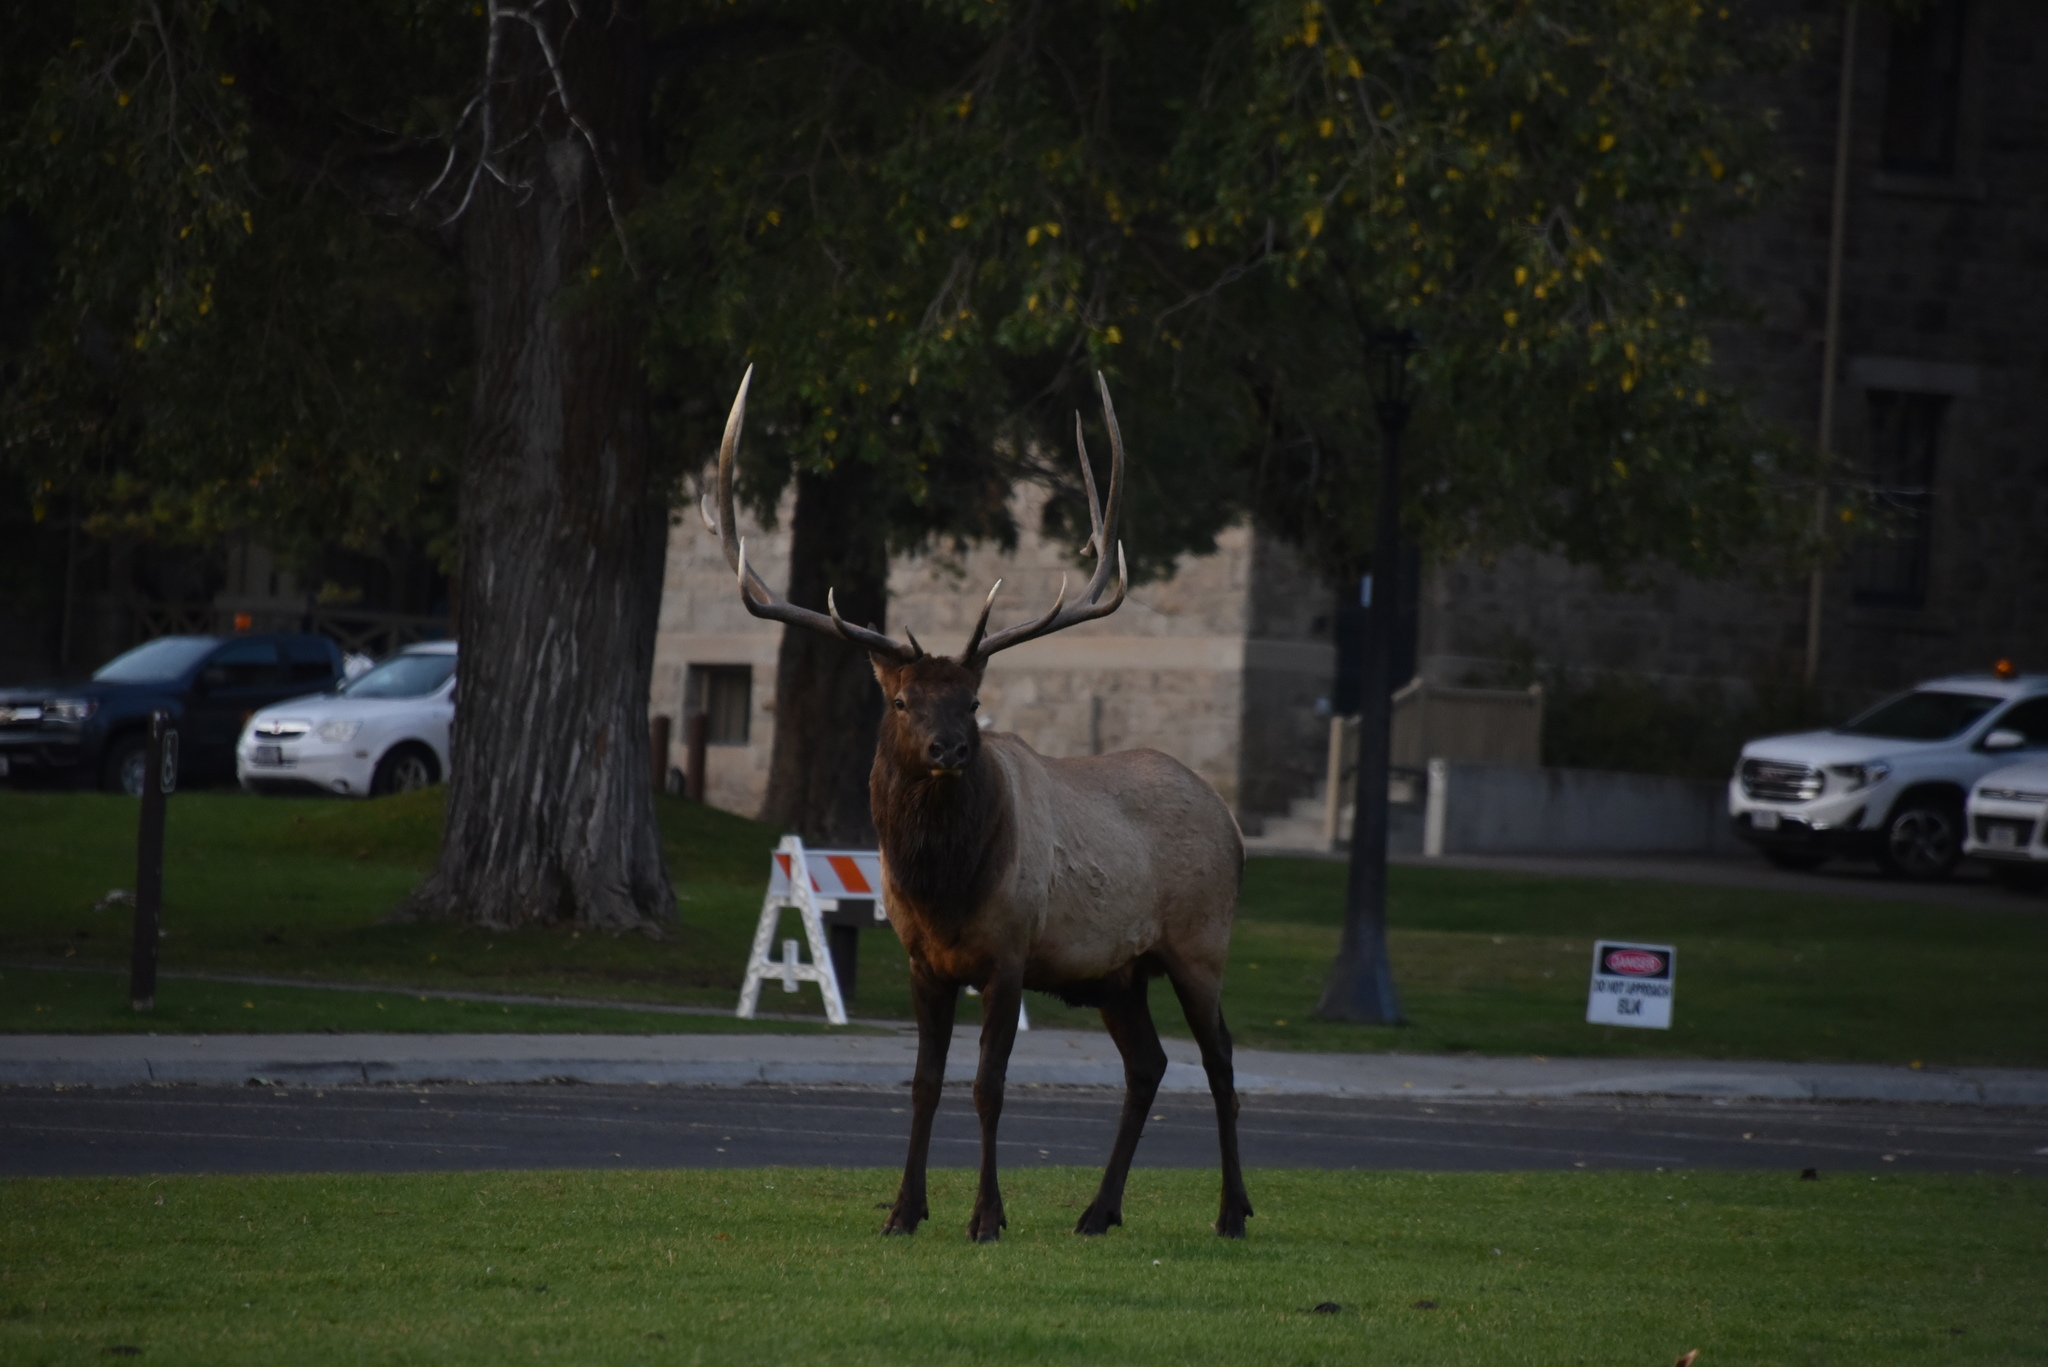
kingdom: Animalia
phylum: Chordata
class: Mammalia
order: Artiodactyla
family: Cervidae
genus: Cervus
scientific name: Cervus elaphus
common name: Red deer
